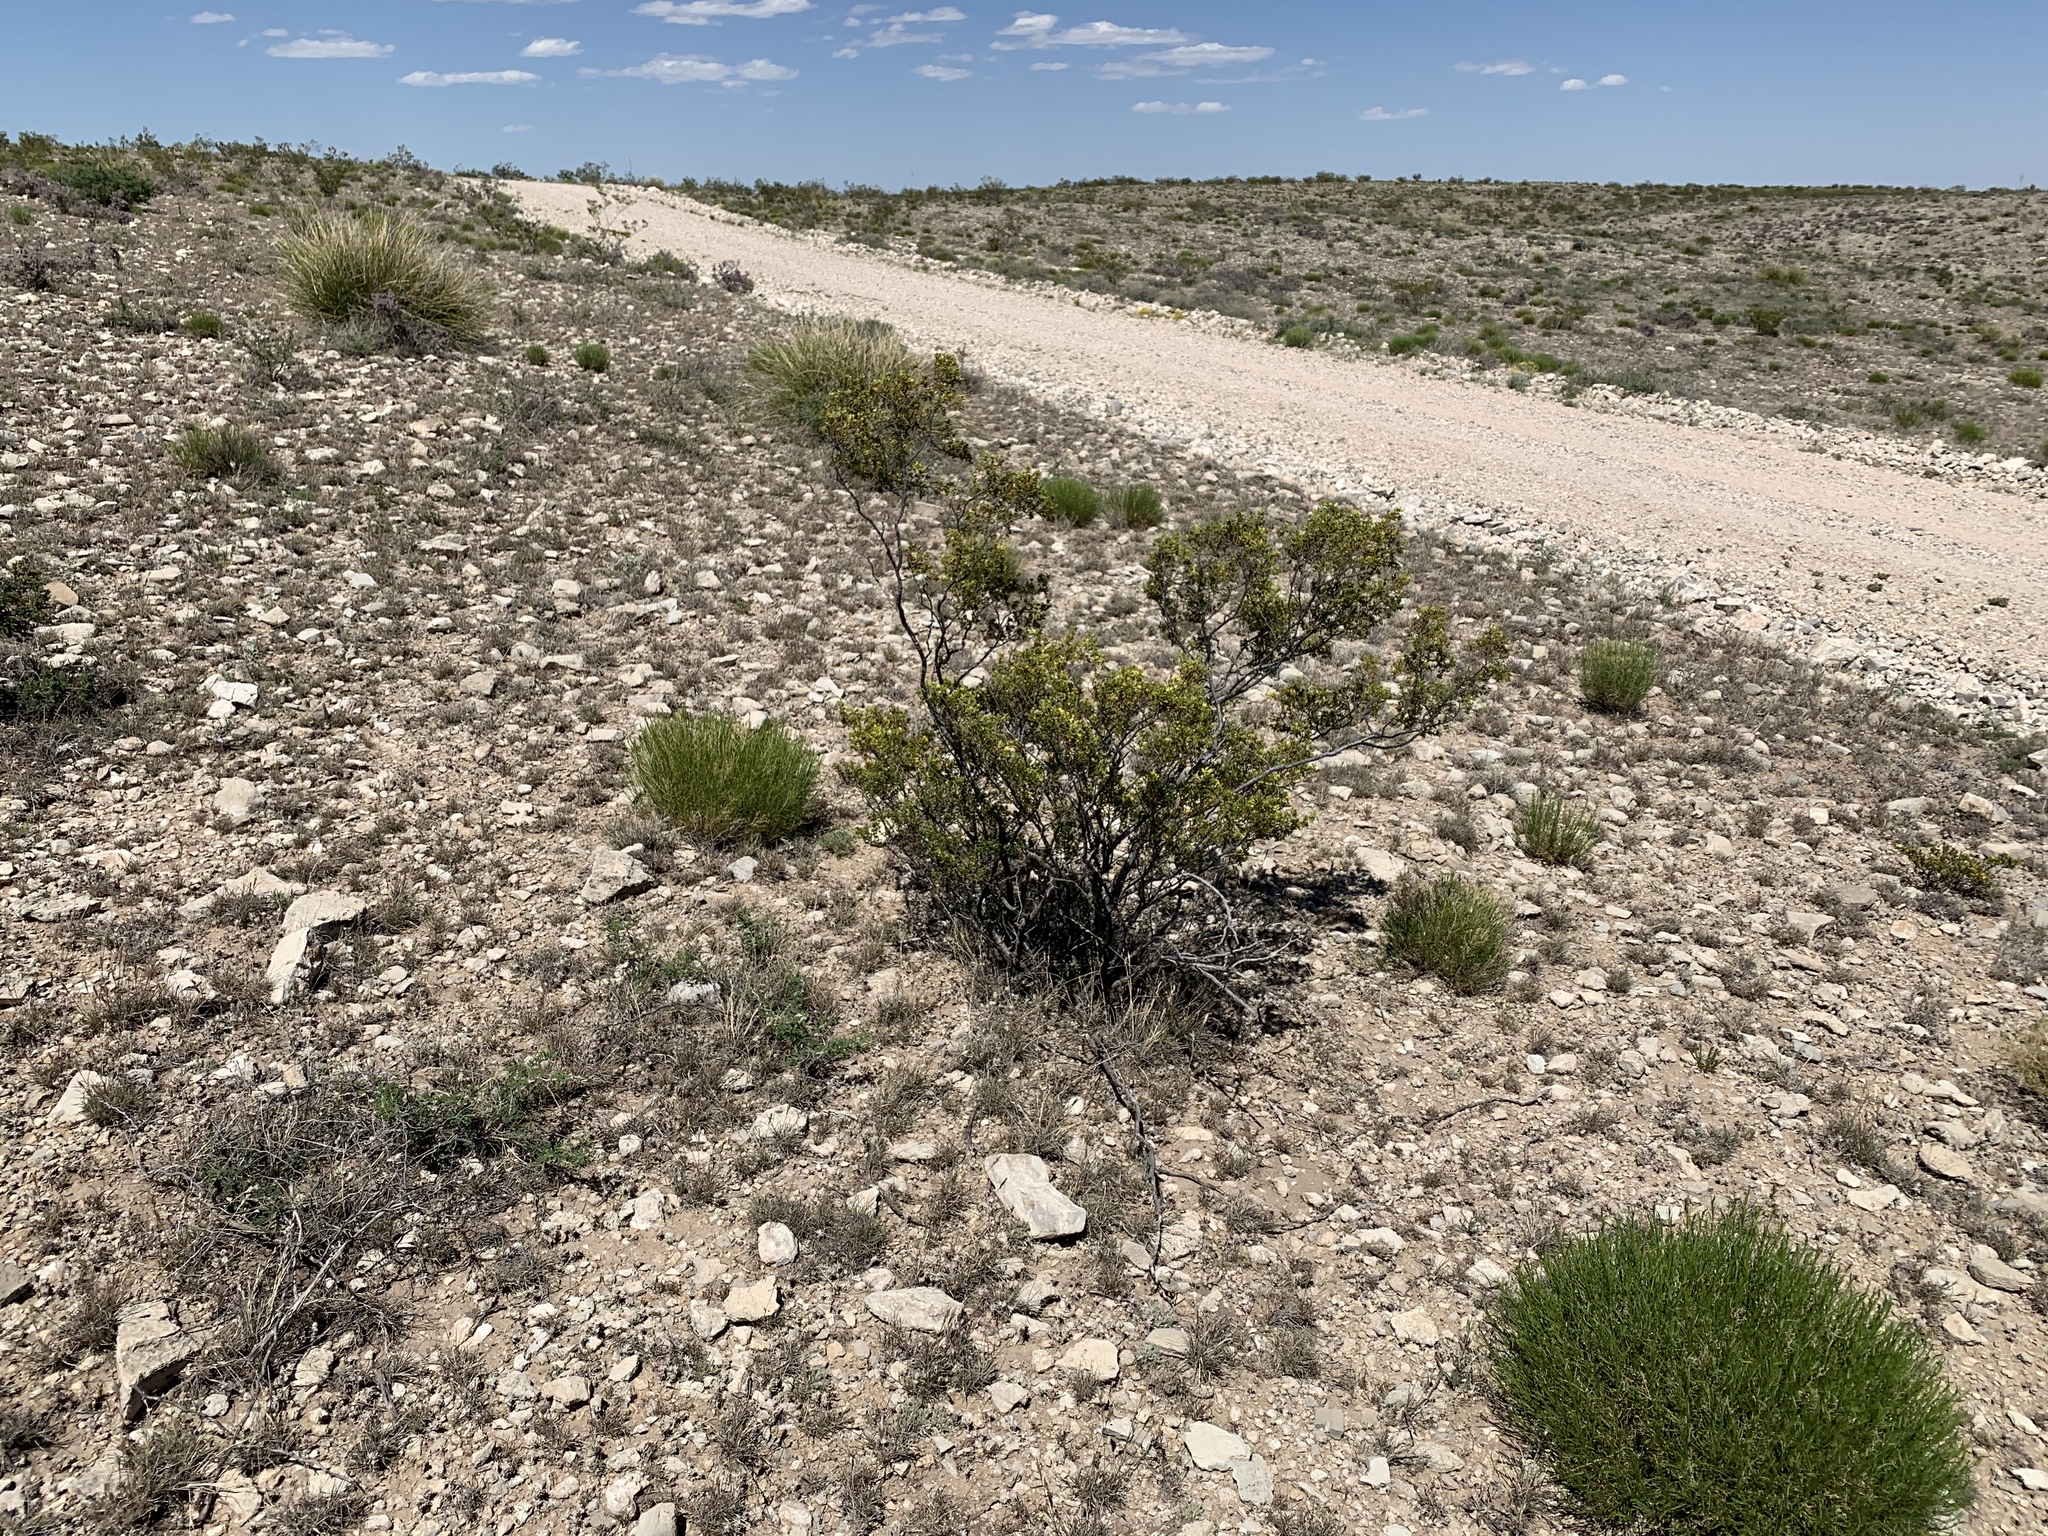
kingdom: Plantae
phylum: Tracheophyta
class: Magnoliopsida
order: Zygophyllales
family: Zygophyllaceae
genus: Larrea
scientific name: Larrea tridentata
